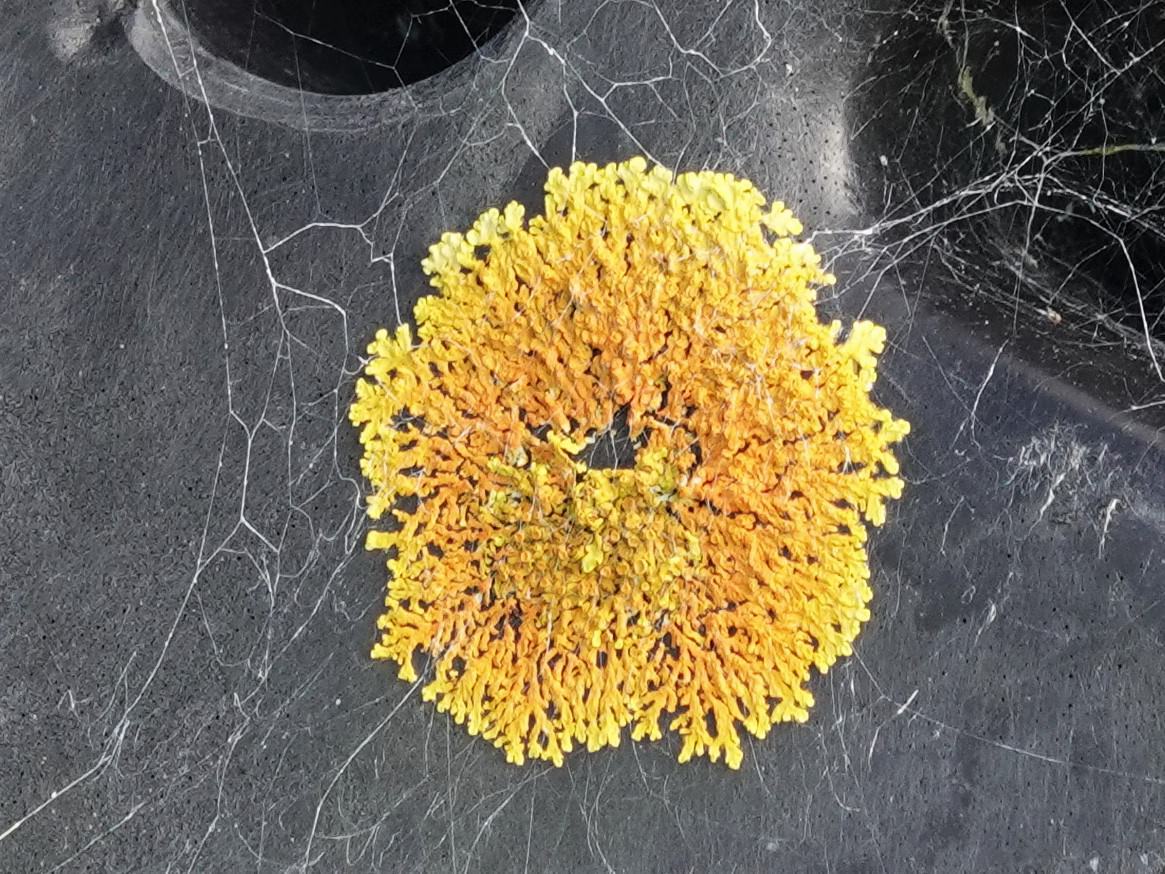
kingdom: Fungi
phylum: Ascomycota
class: Lecanoromycetes
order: Teloschistales
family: Teloschistaceae
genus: Dufourea
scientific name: Dufourea ligulata
